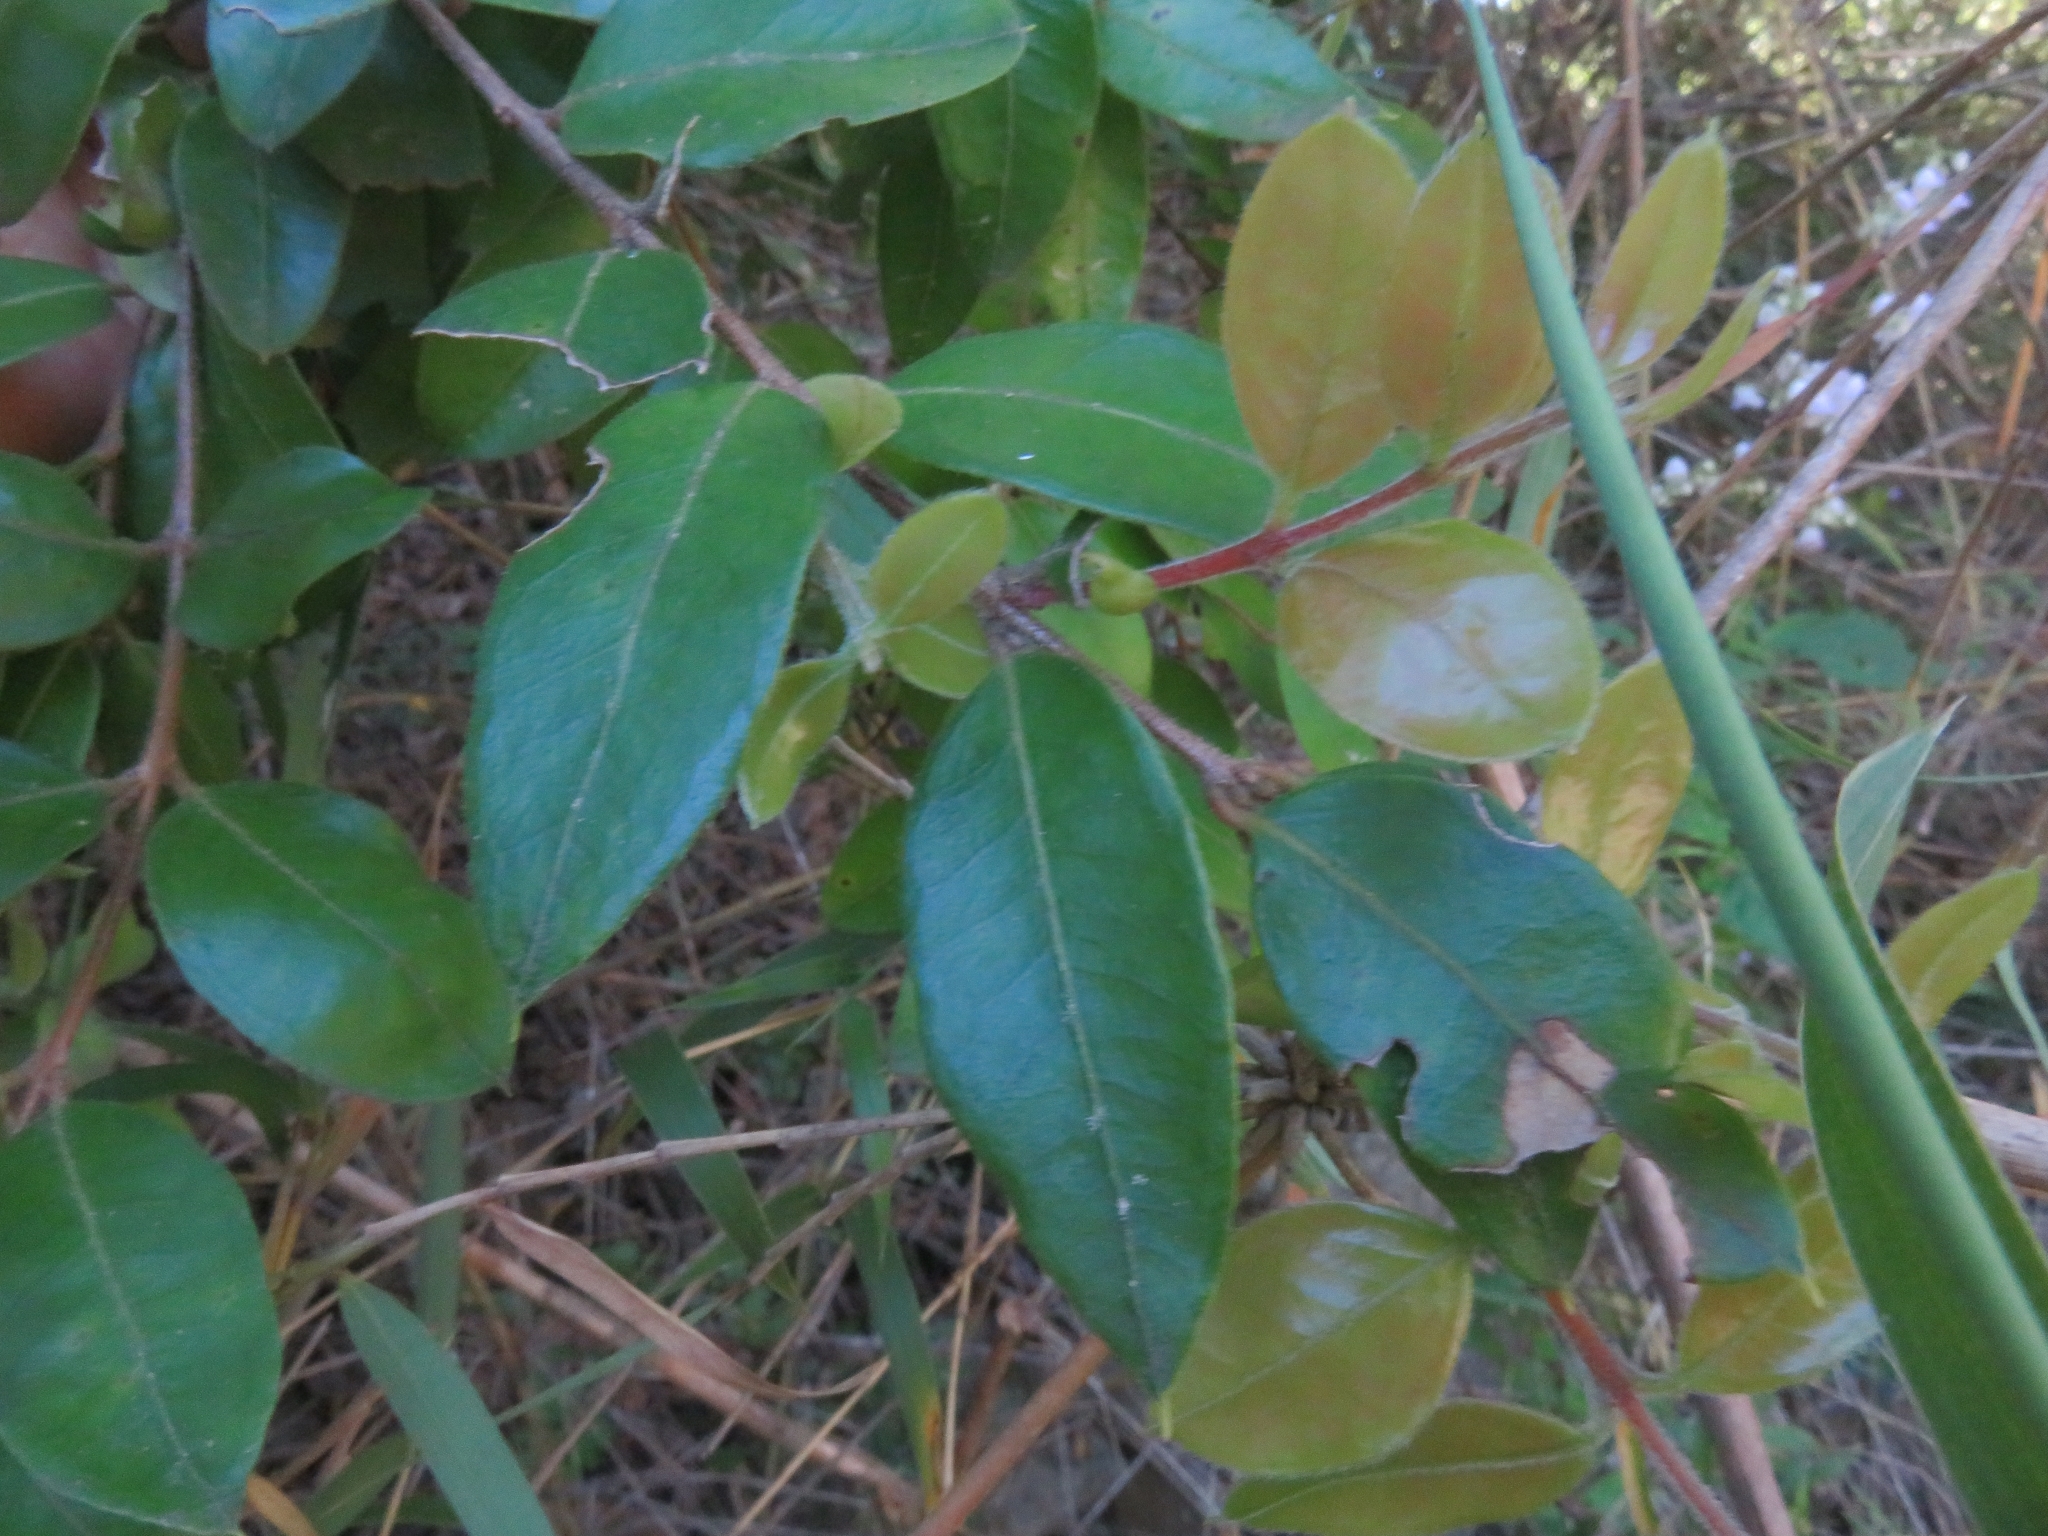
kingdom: Plantae
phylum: Tracheophyta
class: Magnoliopsida
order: Myrtales
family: Myrtaceae
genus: Amomyrtus
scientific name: Amomyrtus luma
